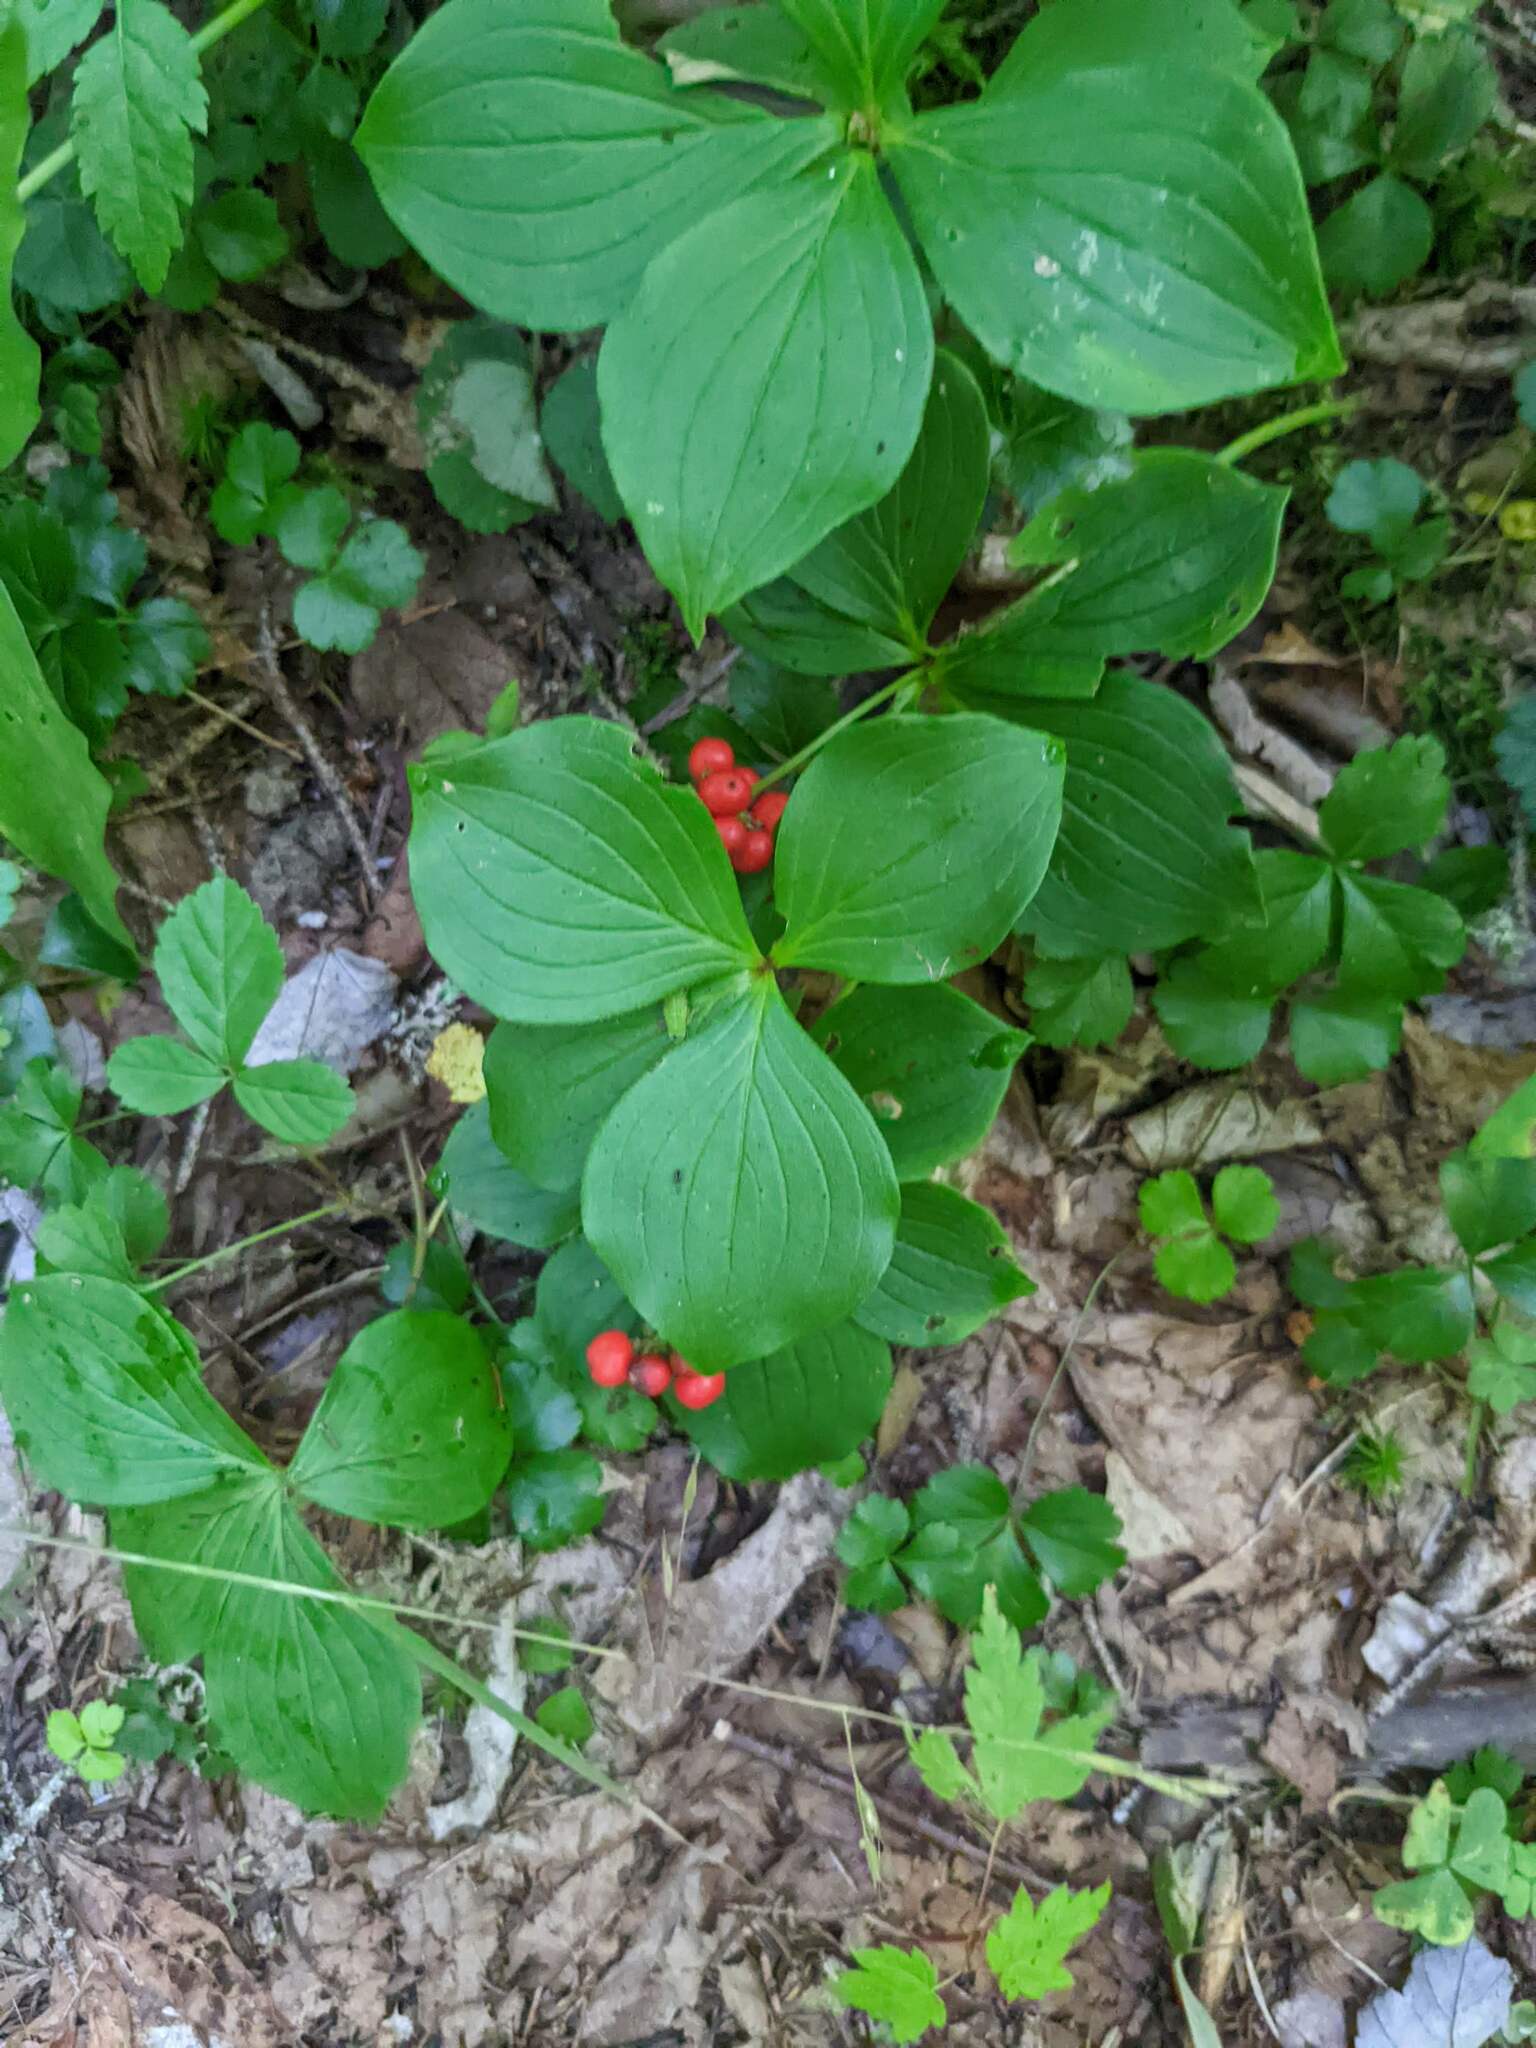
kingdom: Plantae
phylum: Tracheophyta
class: Magnoliopsida
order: Cornales
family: Cornaceae
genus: Cornus
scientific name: Cornus canadensis
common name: Creeping dogwood
